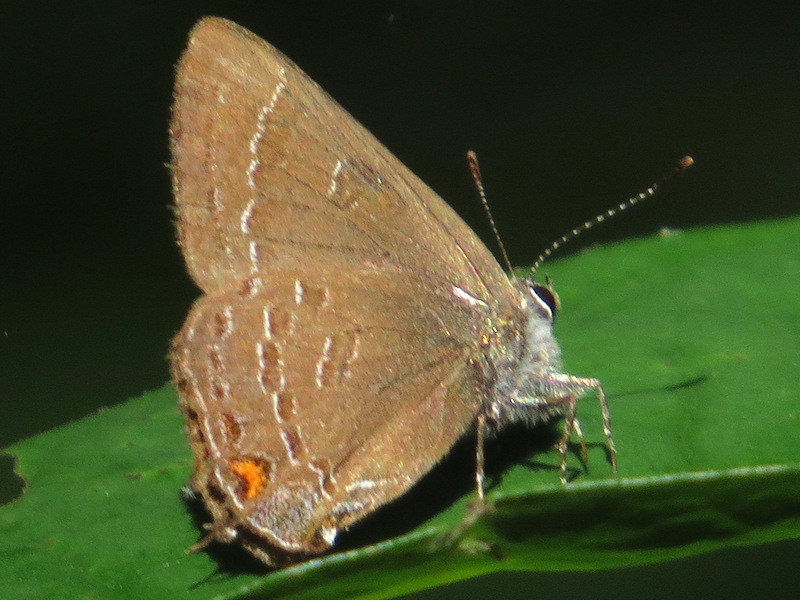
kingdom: Animalia
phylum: Arthropoda
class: Insecta
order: Lepidoptera
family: Lycaenidae
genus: Satyrium
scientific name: Satyrium calanus
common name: Banded hairstreak
